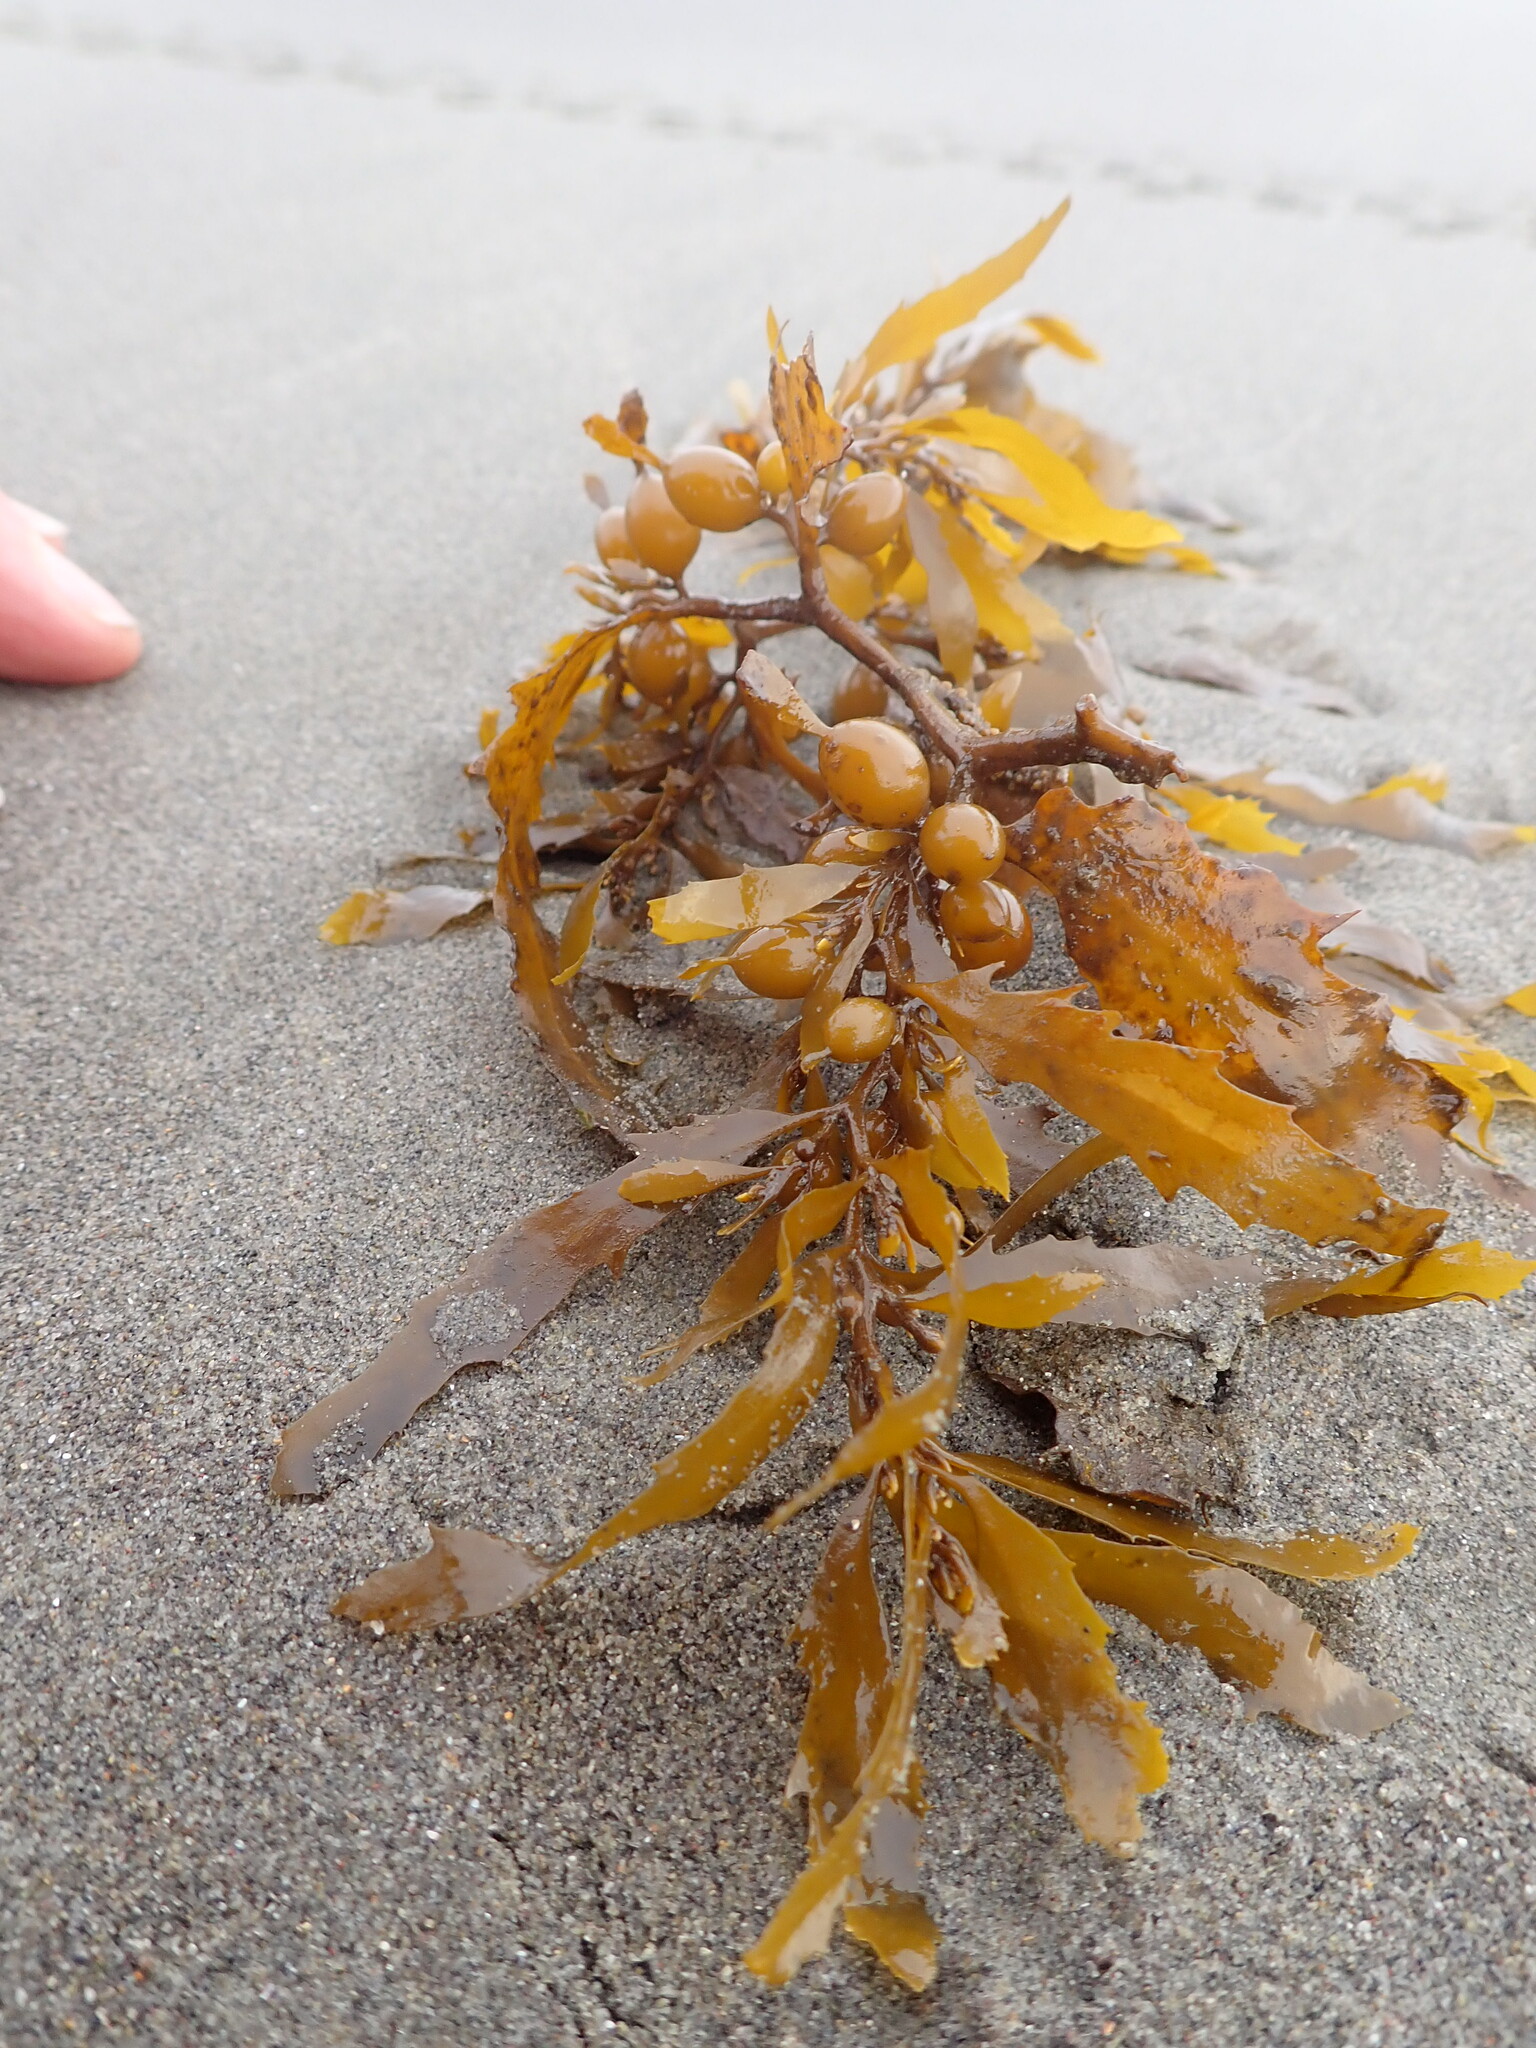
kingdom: Chromista
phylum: Ochrophyta
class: Phaeophyceae
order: Fucales
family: Sargassaceae
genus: Sargassum
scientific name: Sargassum sinclairii
